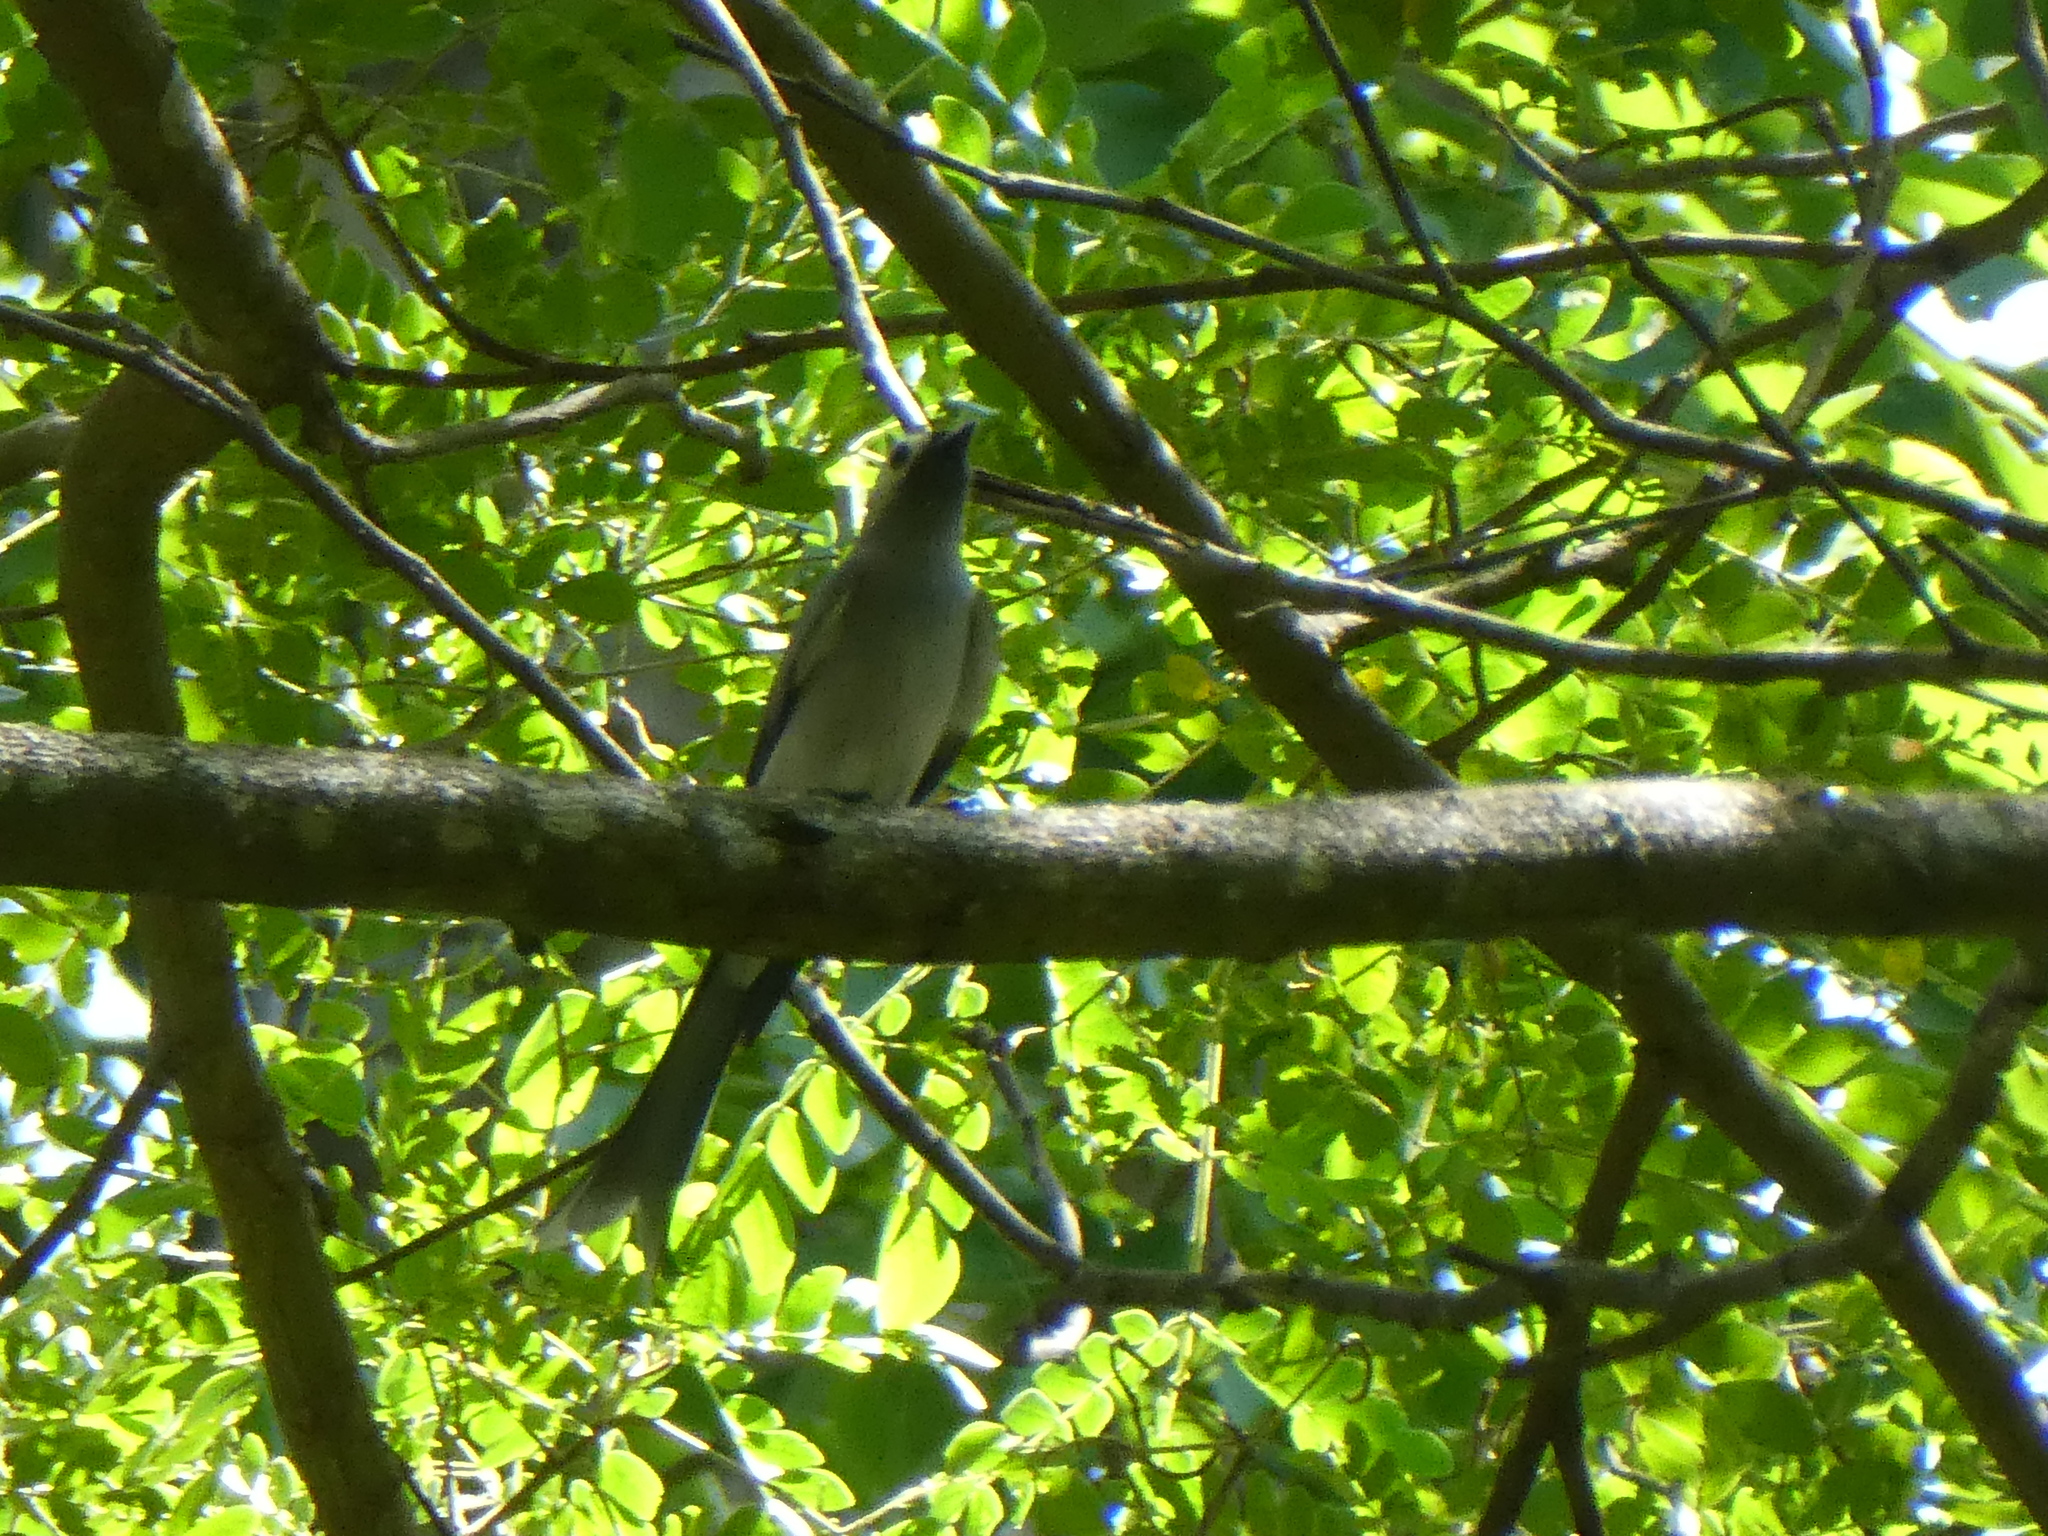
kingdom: Animalia
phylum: Chordata
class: Aves
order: Passeriformes
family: Dicruridae
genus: Dicrurus
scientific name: Dicrurus leucophaeus
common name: Ashy drongo
